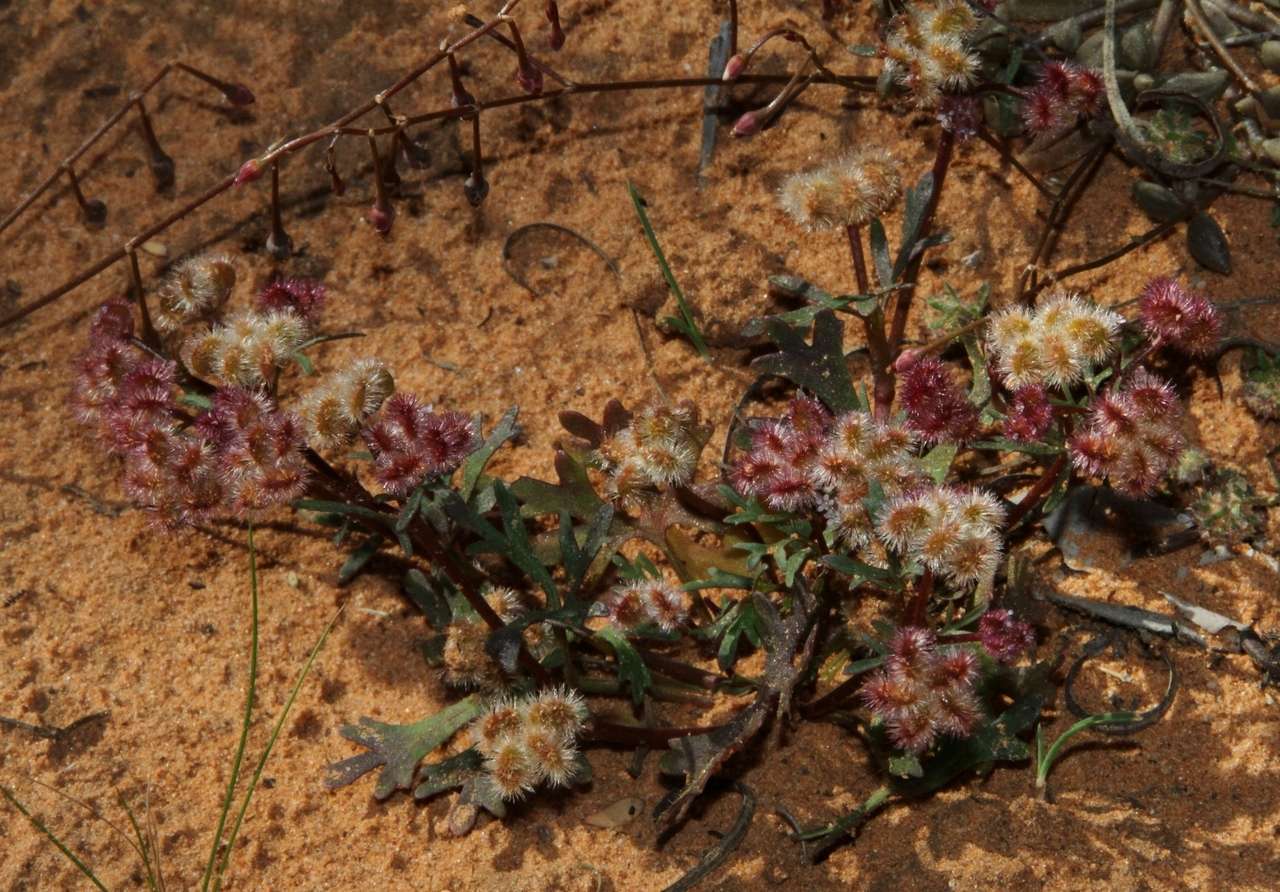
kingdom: Plantae
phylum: Tracheophyta
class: Magnoliopsida
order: Apiales
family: Araliaceae
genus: Trachymene
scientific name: Trachymene cyanopetala
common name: Purple trachymene
